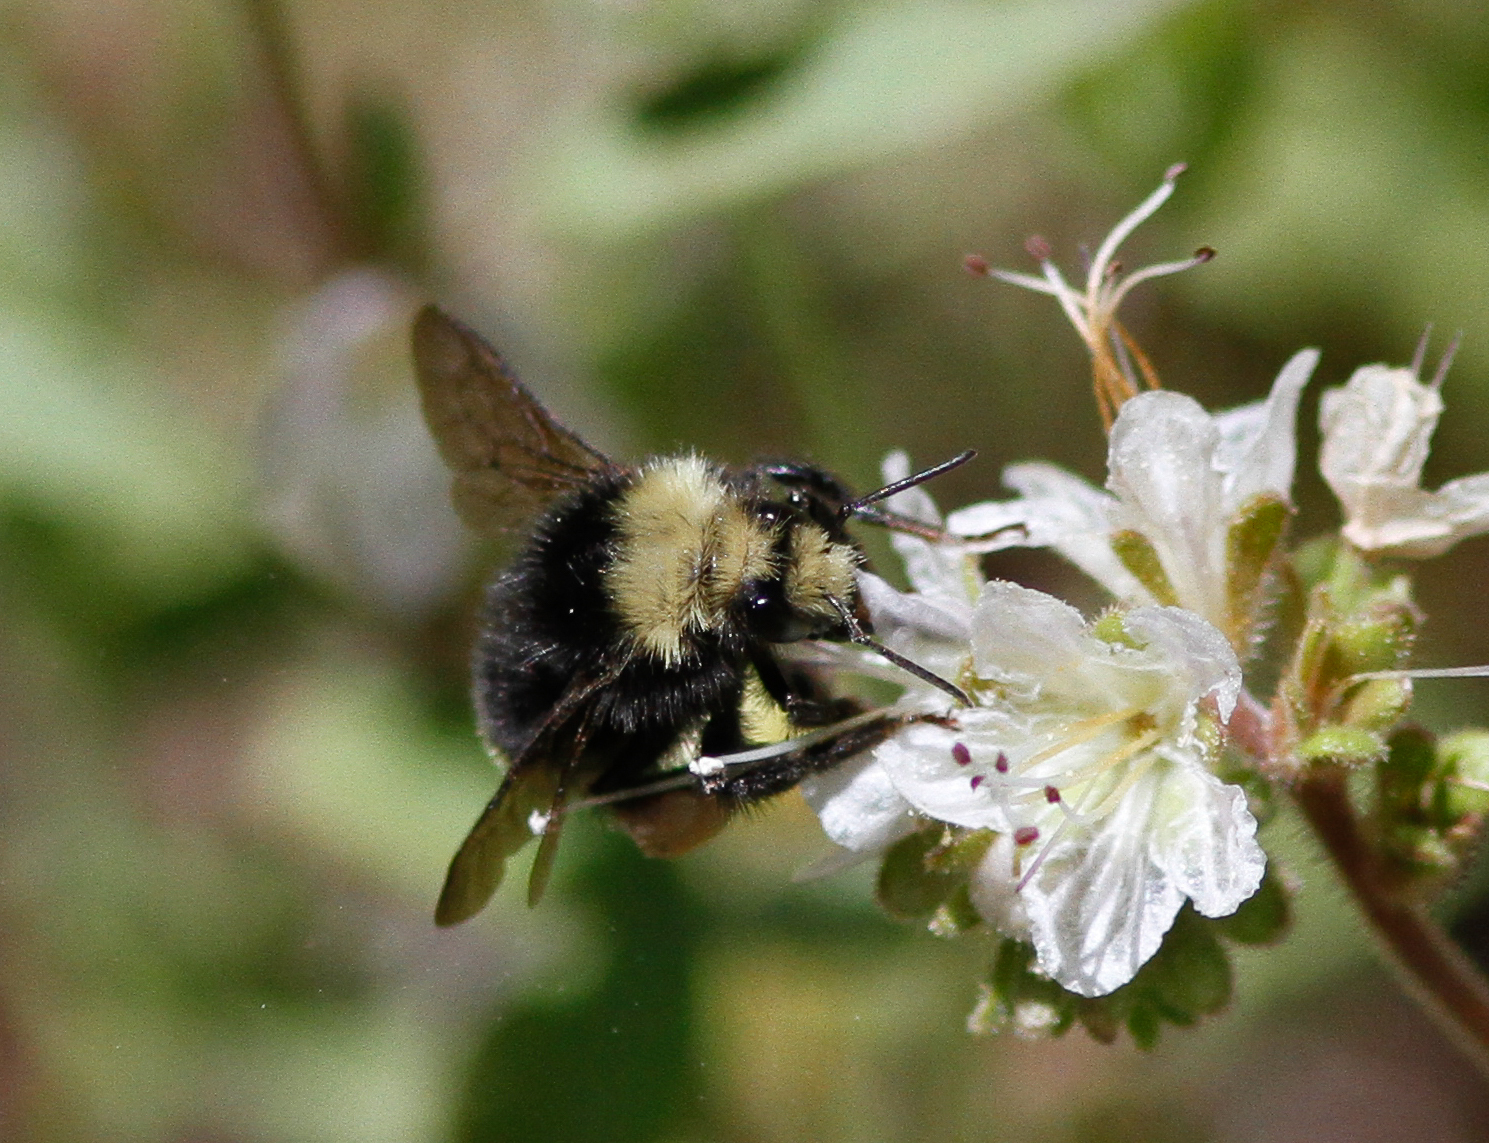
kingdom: Animalia
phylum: Arthropoda
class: Insecta
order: Hymenoptera
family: Apidae
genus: Bombus
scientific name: Bombus vandykei
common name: Van dyke bumble bee
